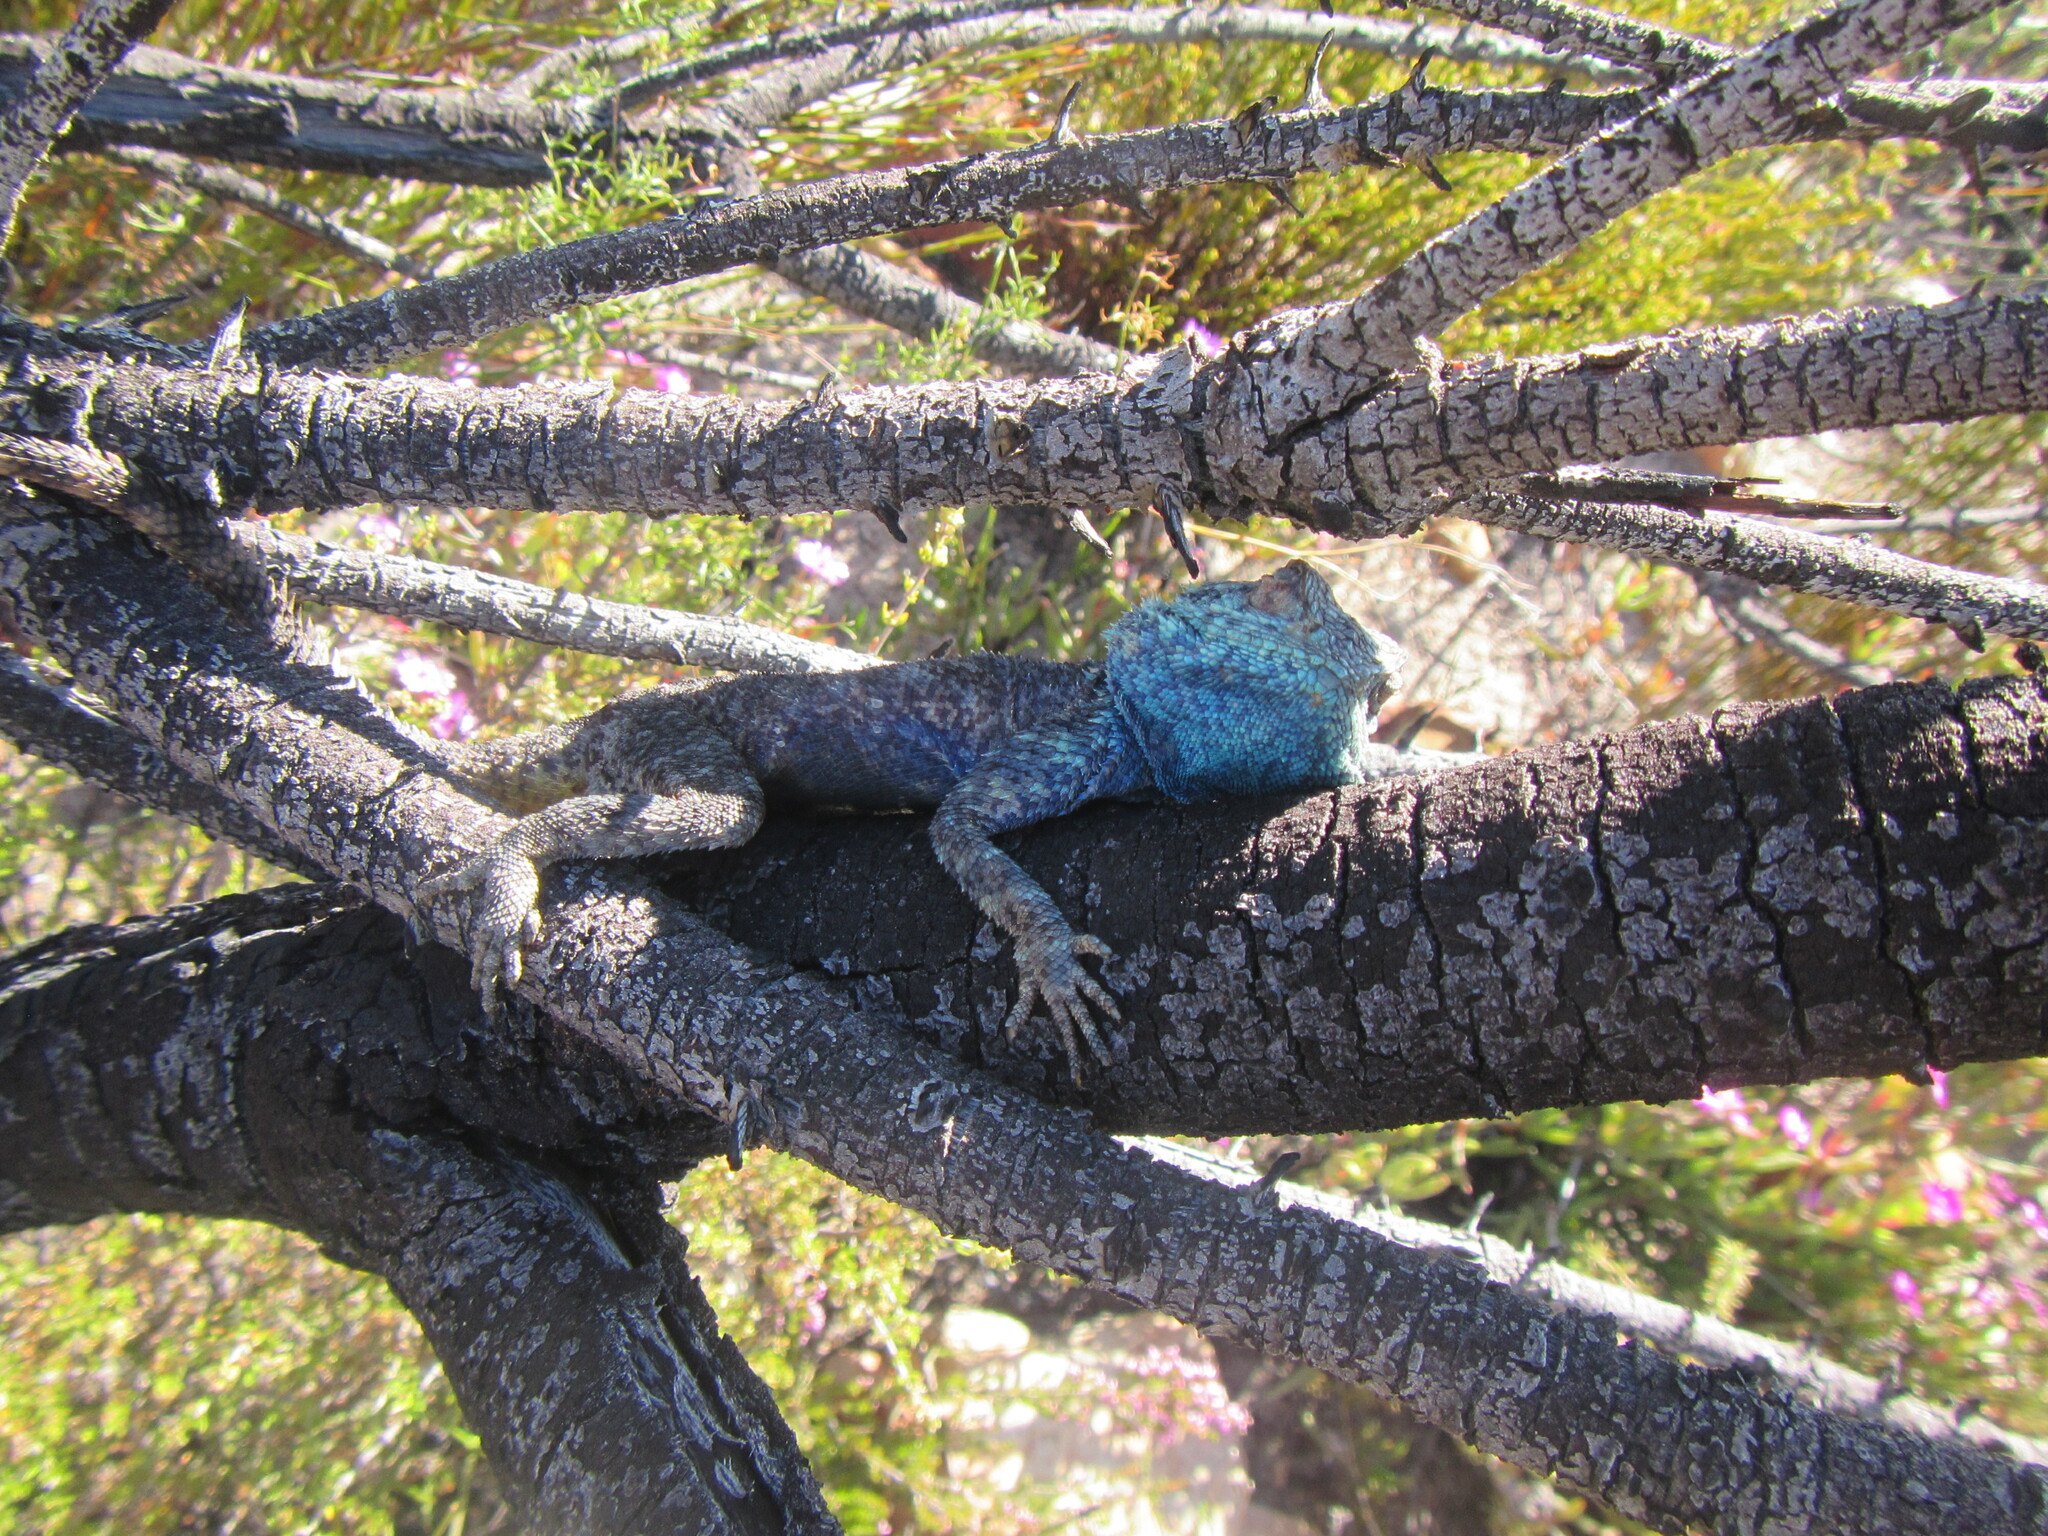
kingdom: Animalia
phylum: Chordata
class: Squamata
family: Agamidae
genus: Agama
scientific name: Agama atra
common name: Southern african rock agama
